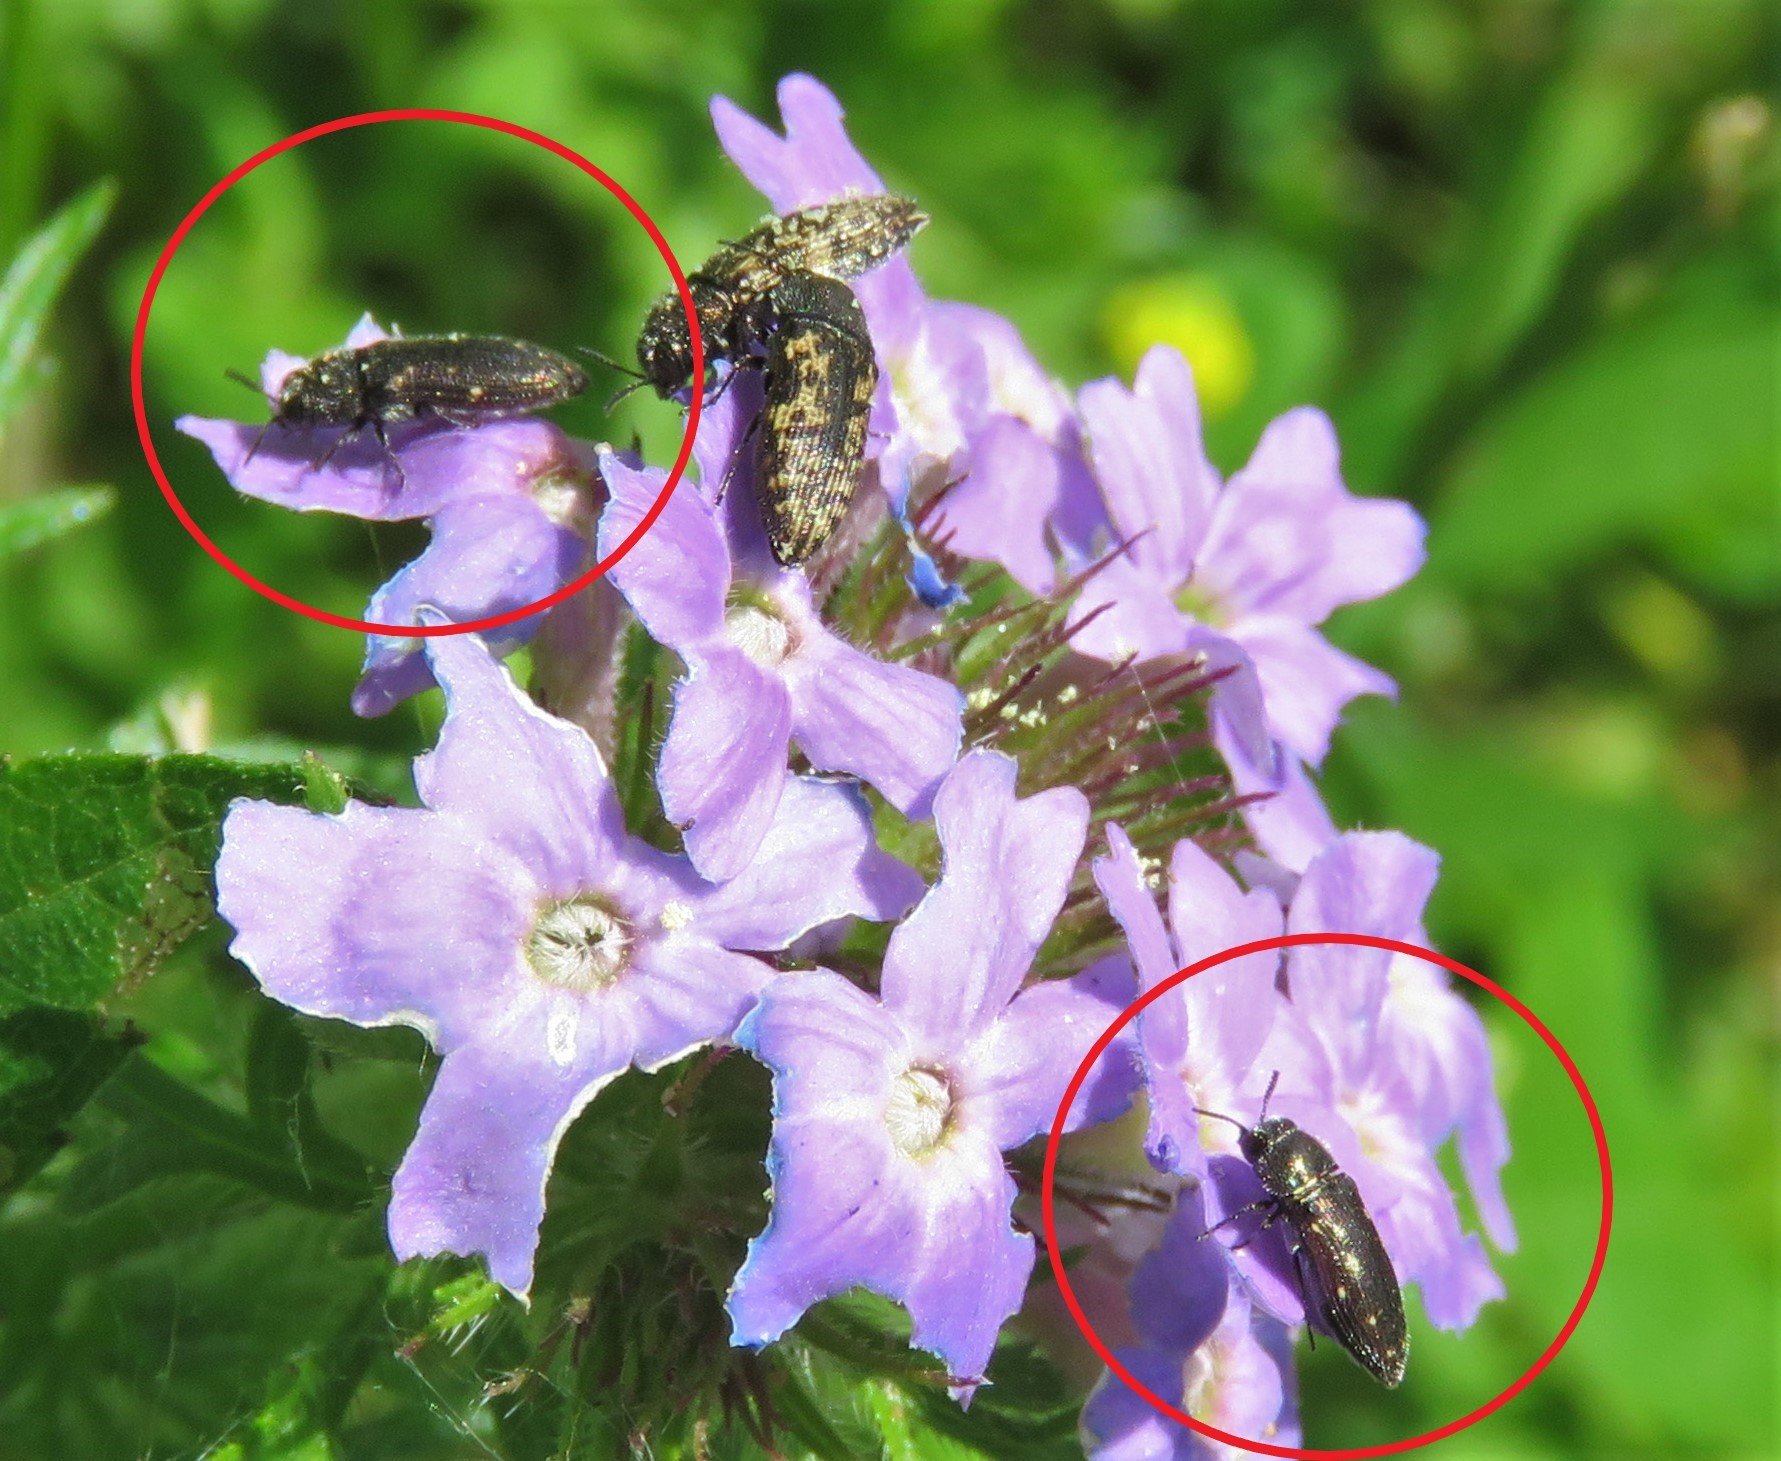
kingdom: Animalia
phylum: Arthropoda
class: Insecta
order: Coleoptera
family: Buprestidae
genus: Acmaeodera
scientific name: Acmaeodera tubulus
